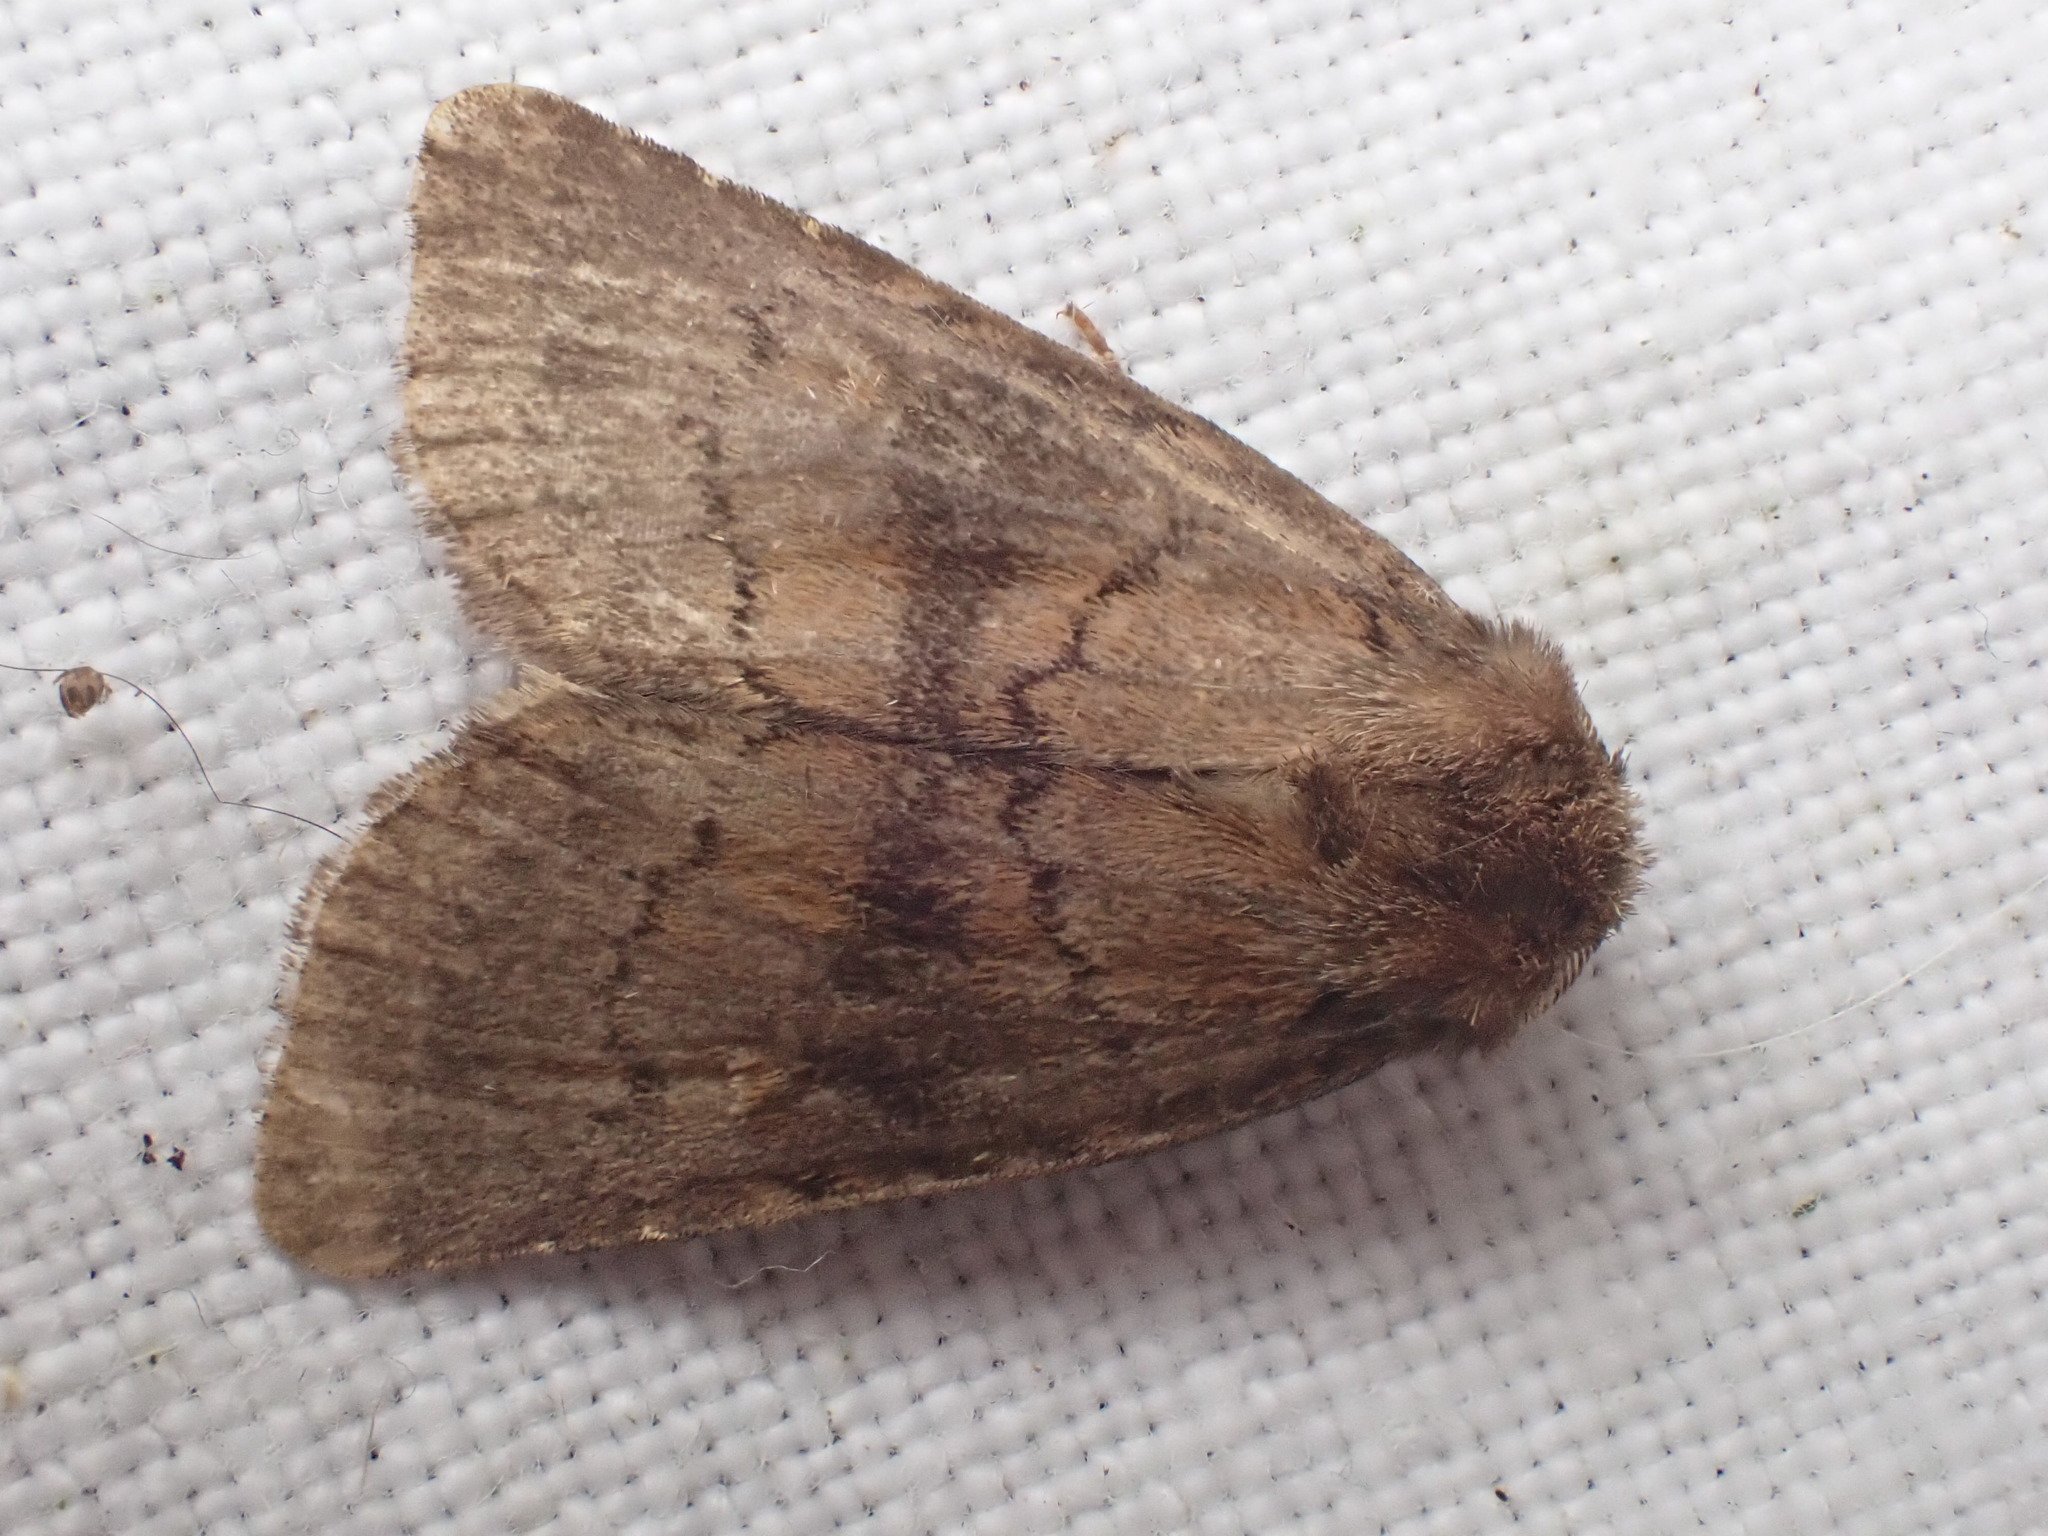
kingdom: Animalia
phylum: Arthropoda
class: Insecta
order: Lepidoptera
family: Noctuidae
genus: Charanyca
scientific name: Charanyca ferruginea
